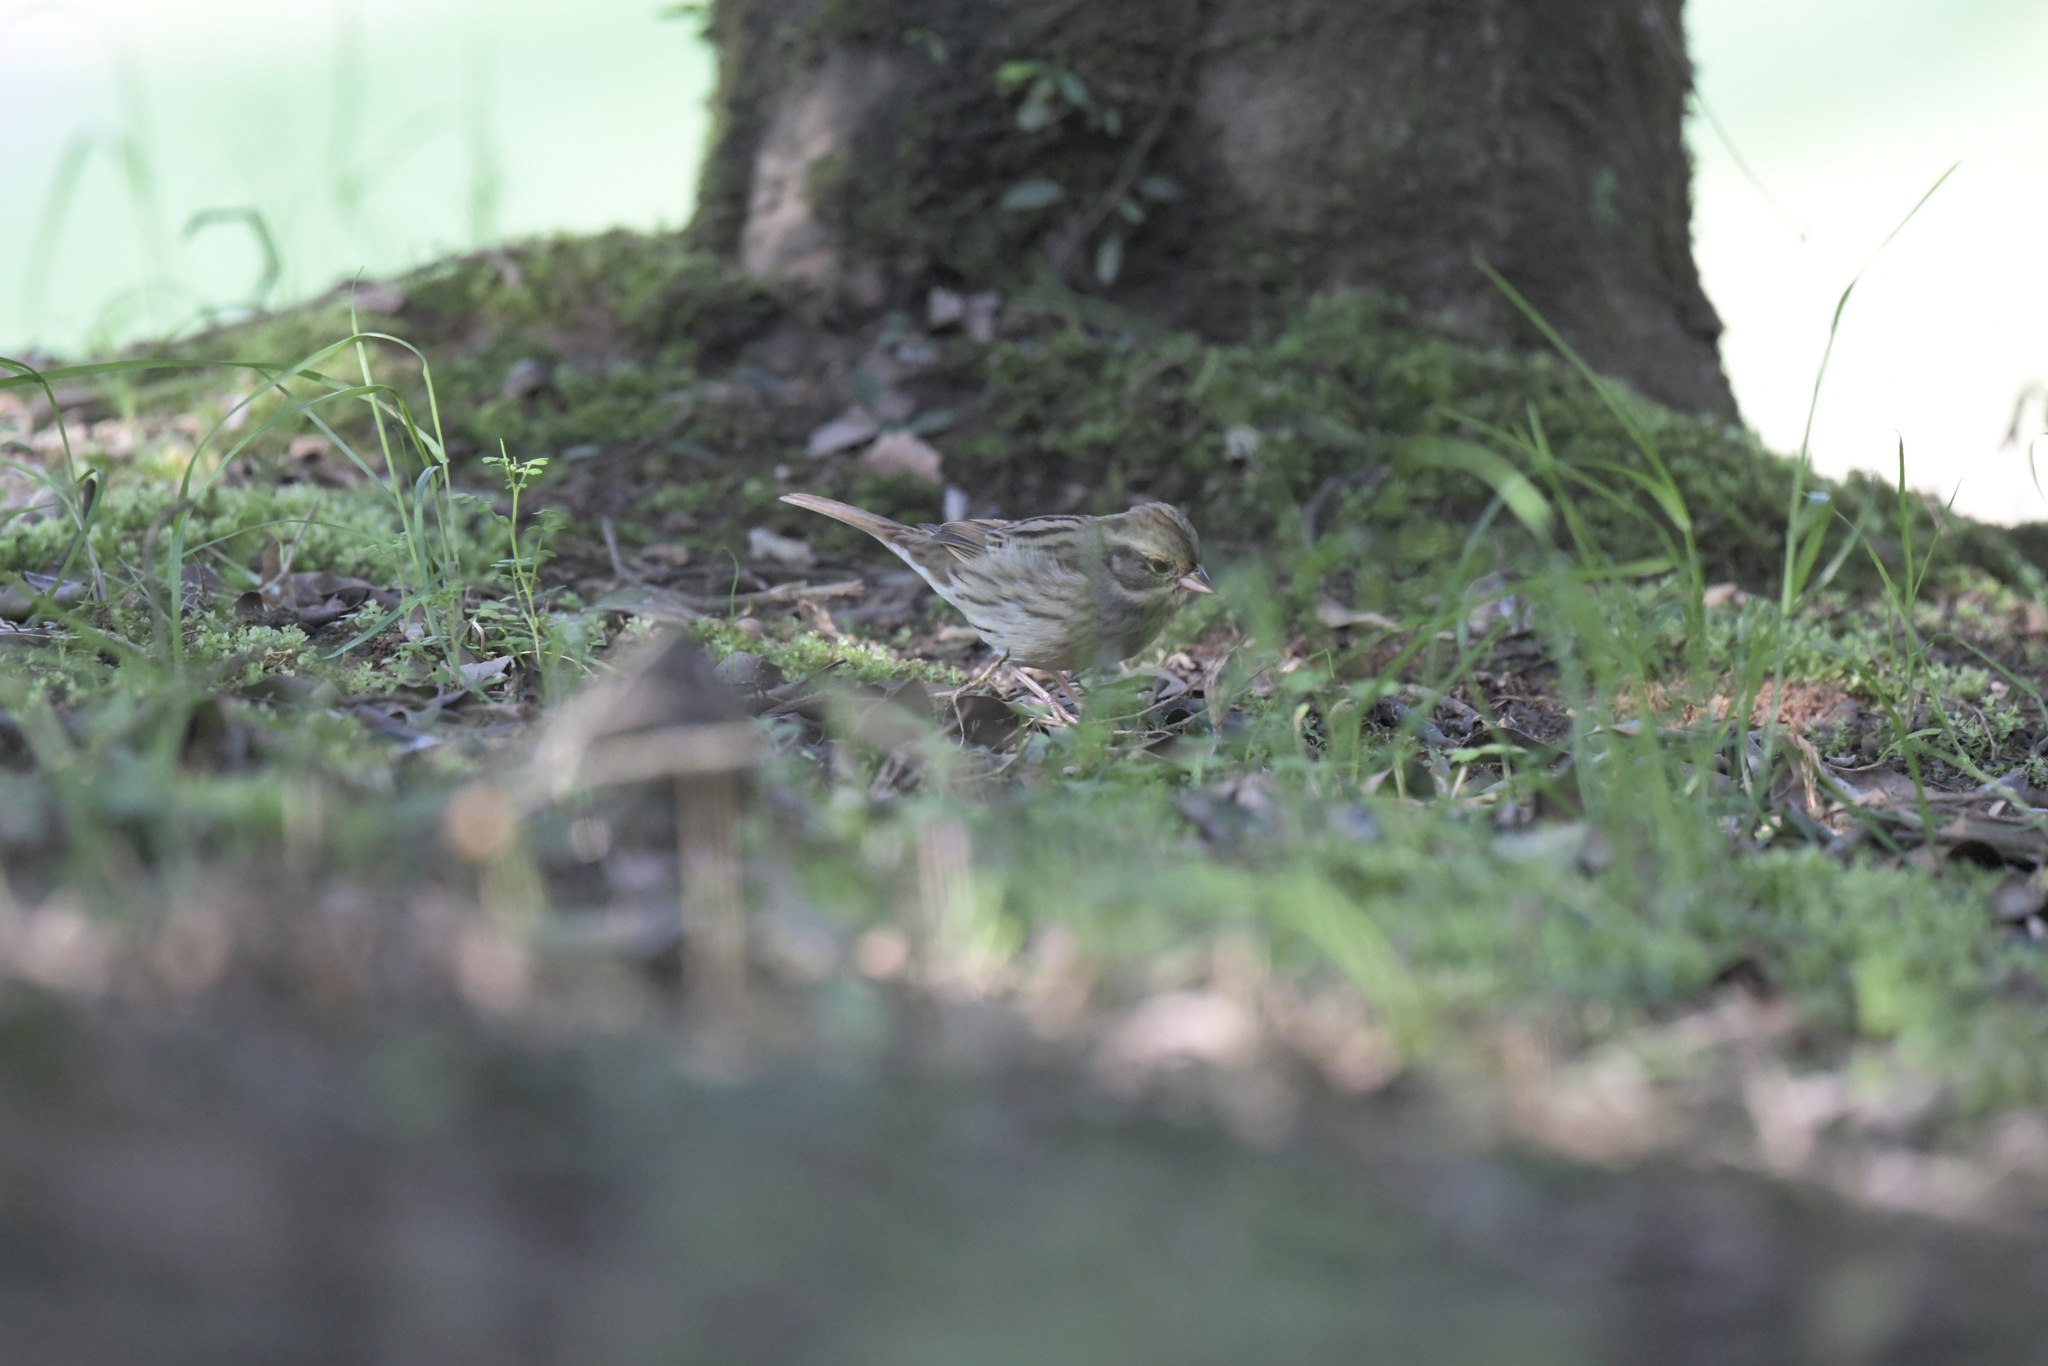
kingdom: Animalia
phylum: Chordata
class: Aves
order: Passeriformes
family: Emberizidae
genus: Emberiza
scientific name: Emberiza spodocephala
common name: Black-faced bunting
